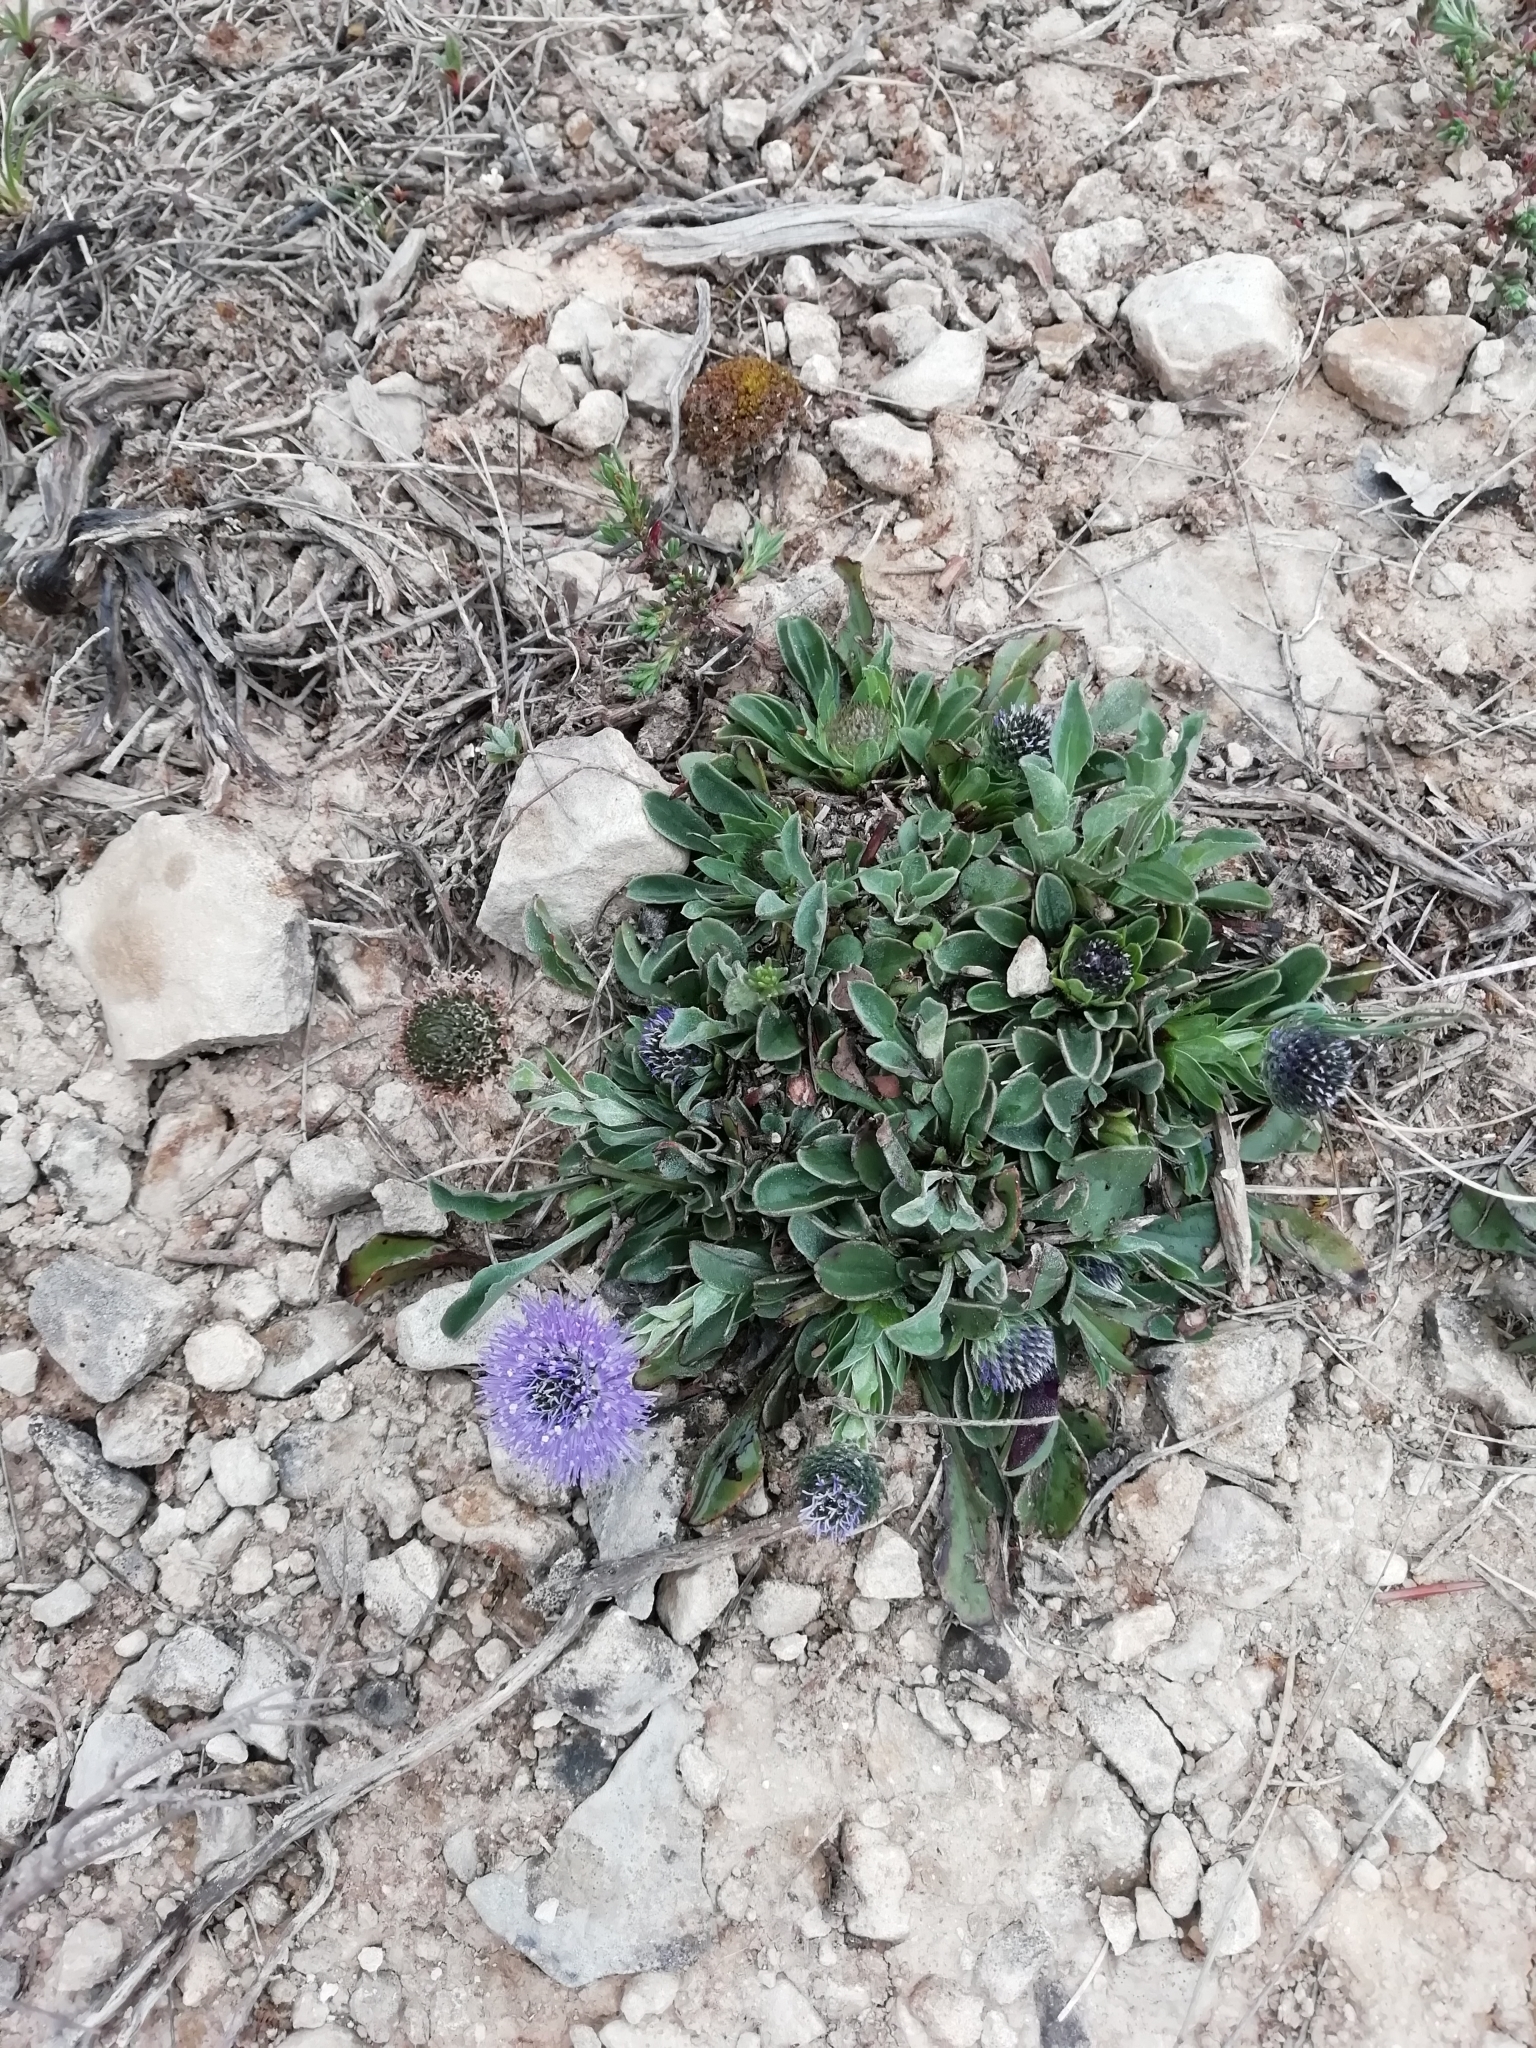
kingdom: Plantae
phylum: Tracheophyta
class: Magnoliopsida
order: Lamiales
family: Plantaginaceae
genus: Globularia
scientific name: Globularia vulgaris
